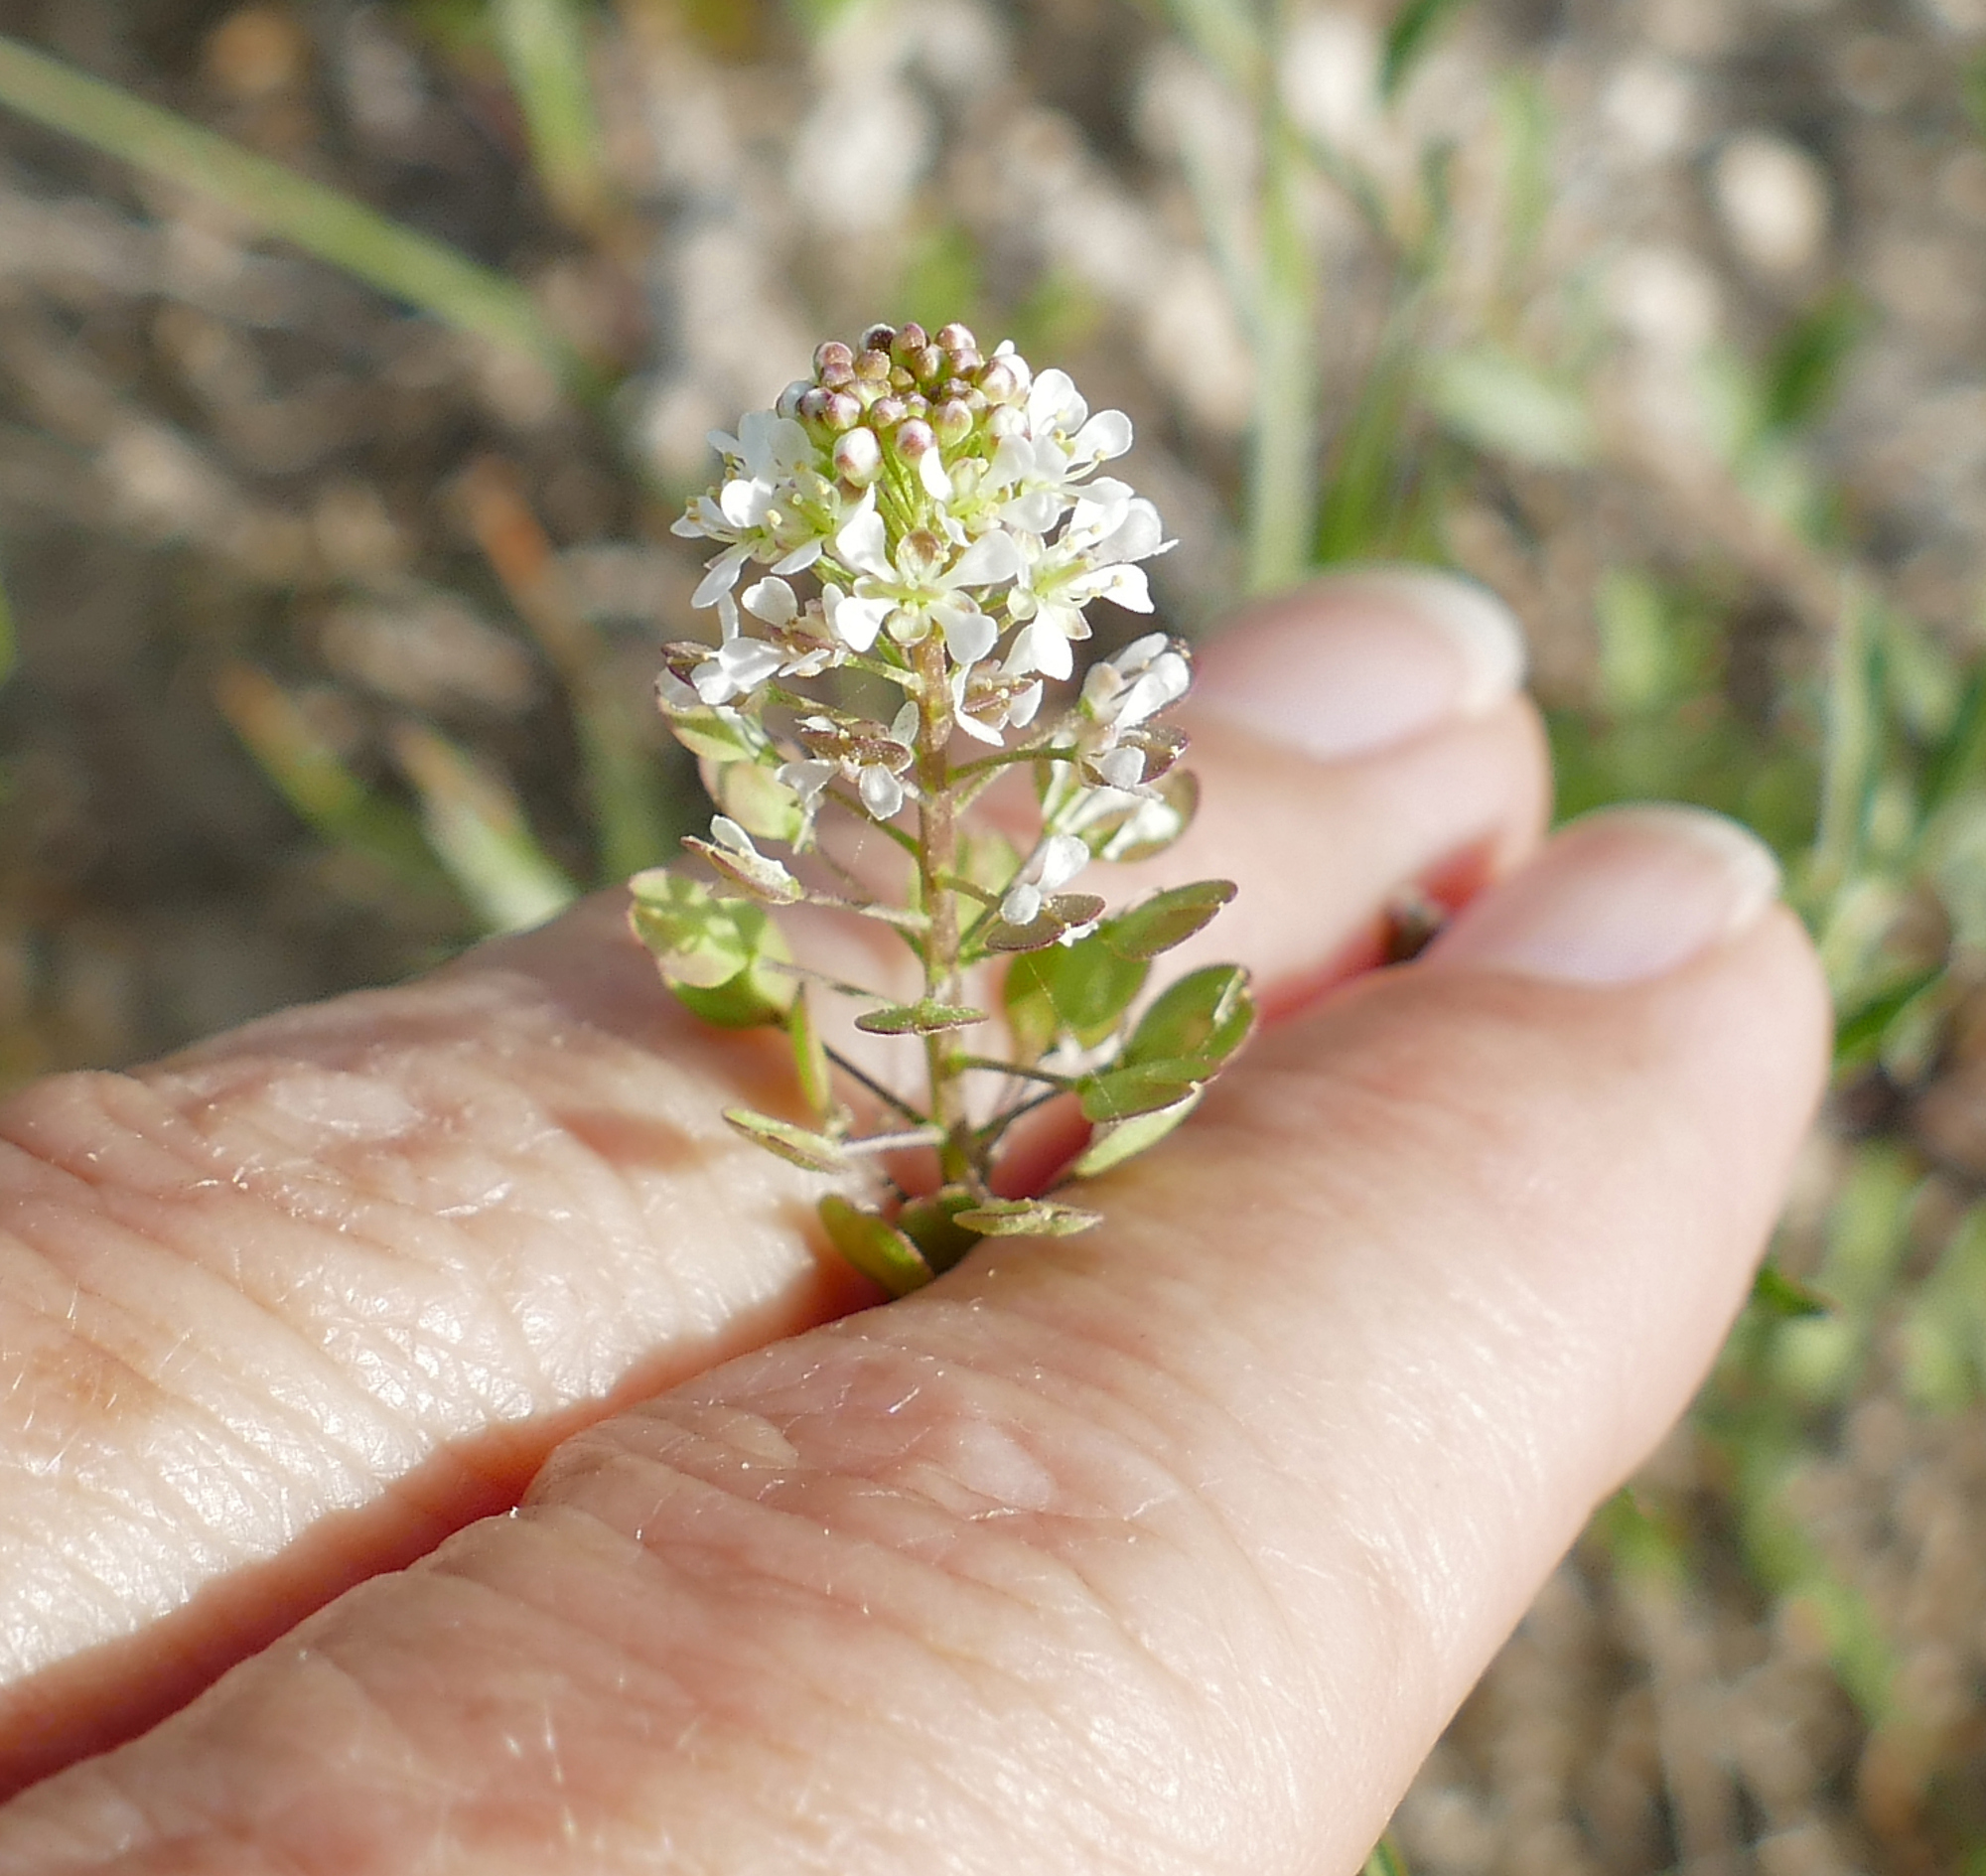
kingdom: Plantae
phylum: Tracheophyta
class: Magnoliopsida
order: Brassicales
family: Brassicaceae
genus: Lepidium
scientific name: Lepidium virginicum
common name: Least pepperwort
